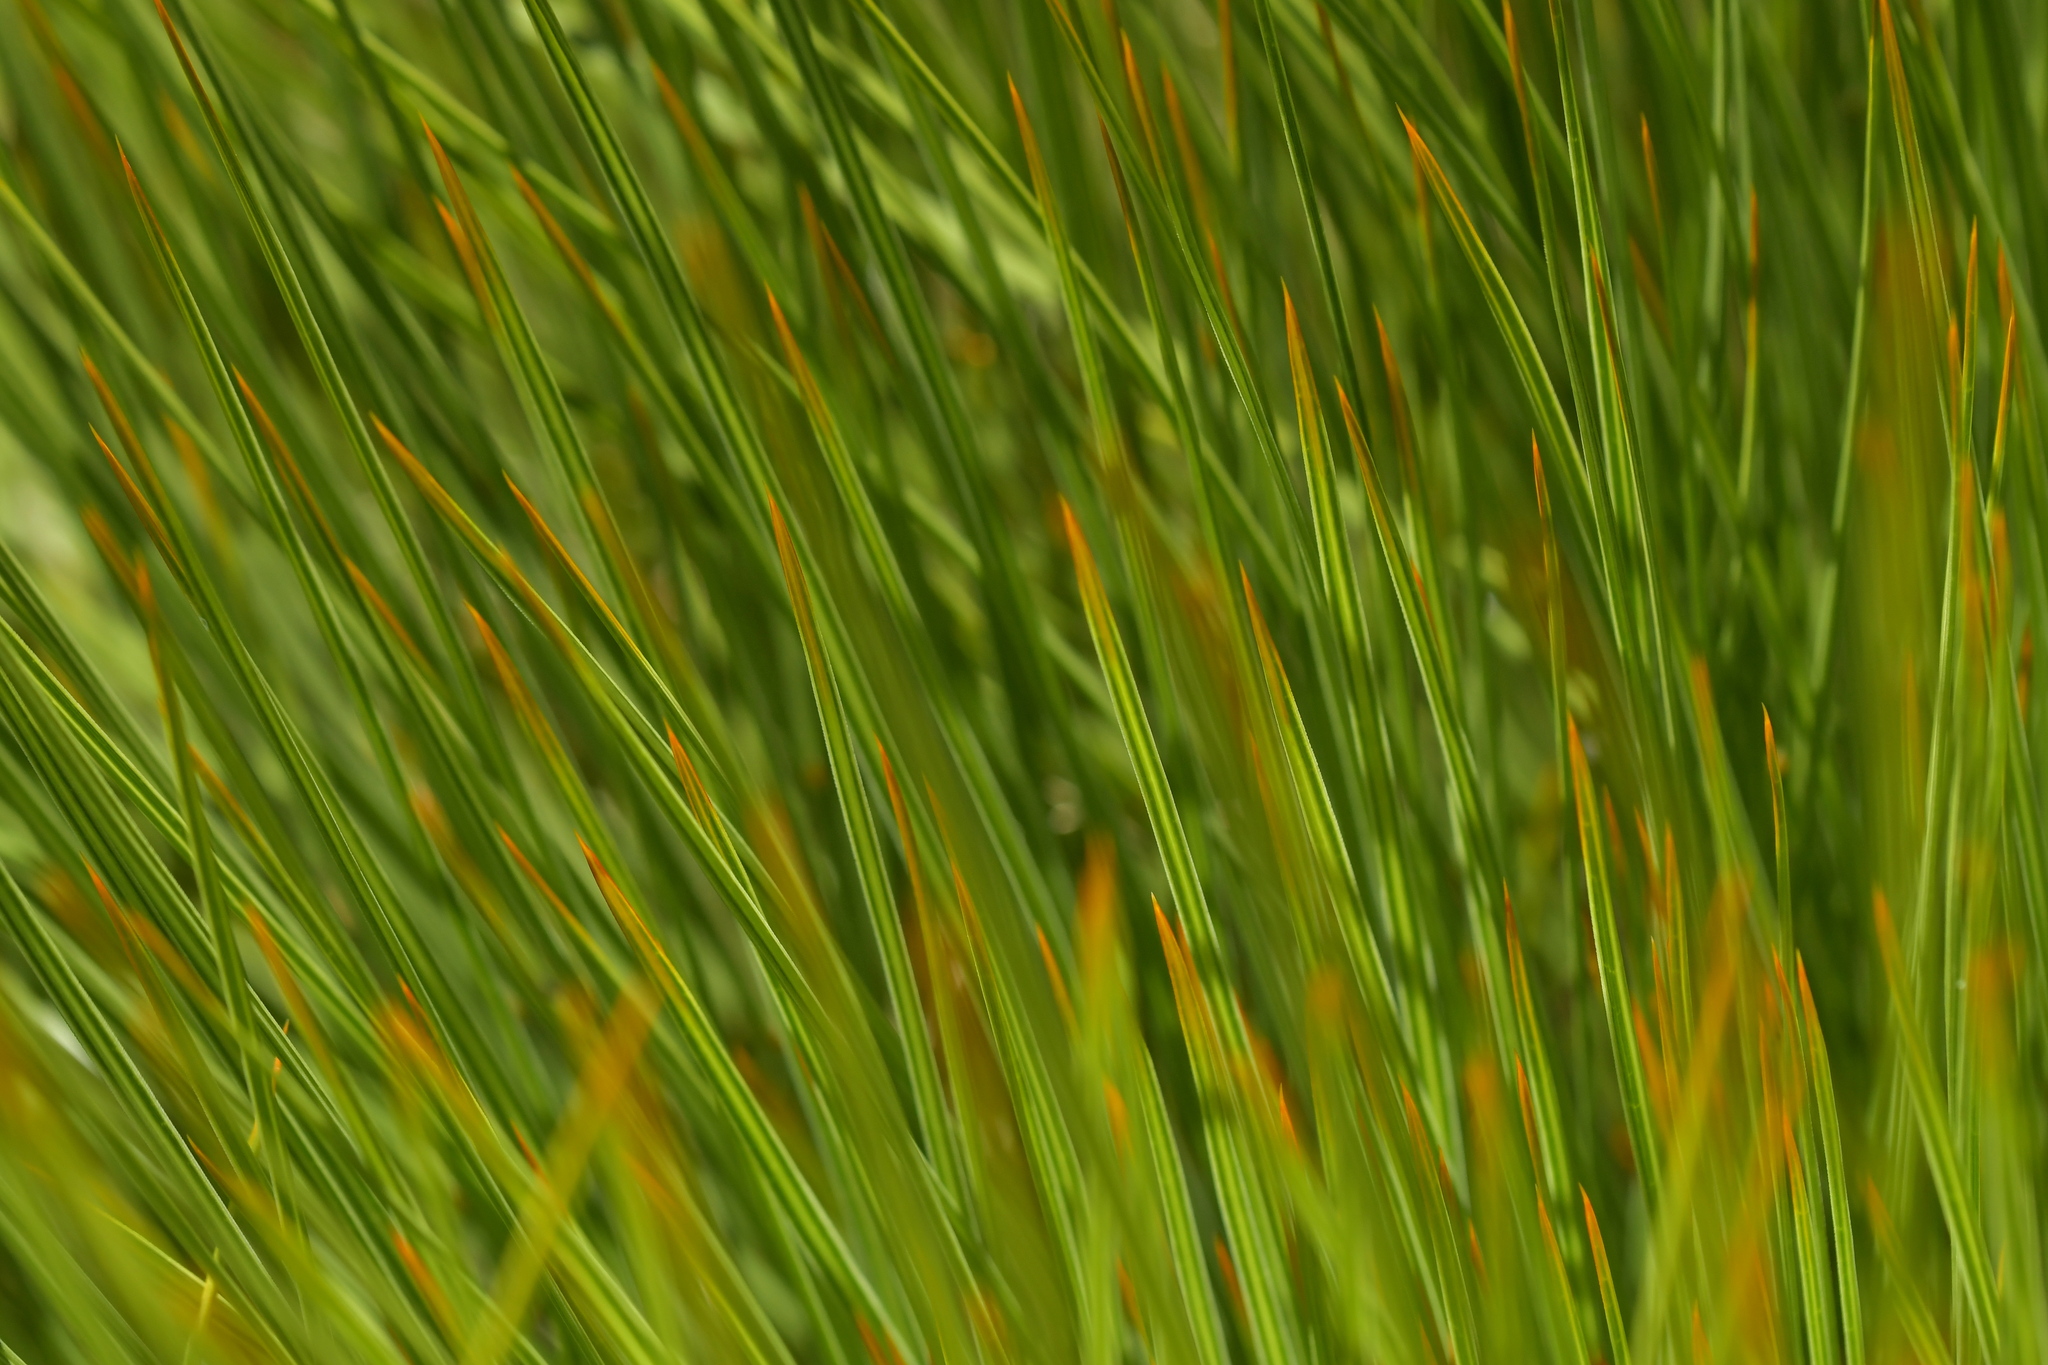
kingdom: Plantae
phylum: Tracheophyta
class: Magnoliopsida
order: Apiales
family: Apiaceae
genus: Aciphylla
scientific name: Aciphylla squarrosa
